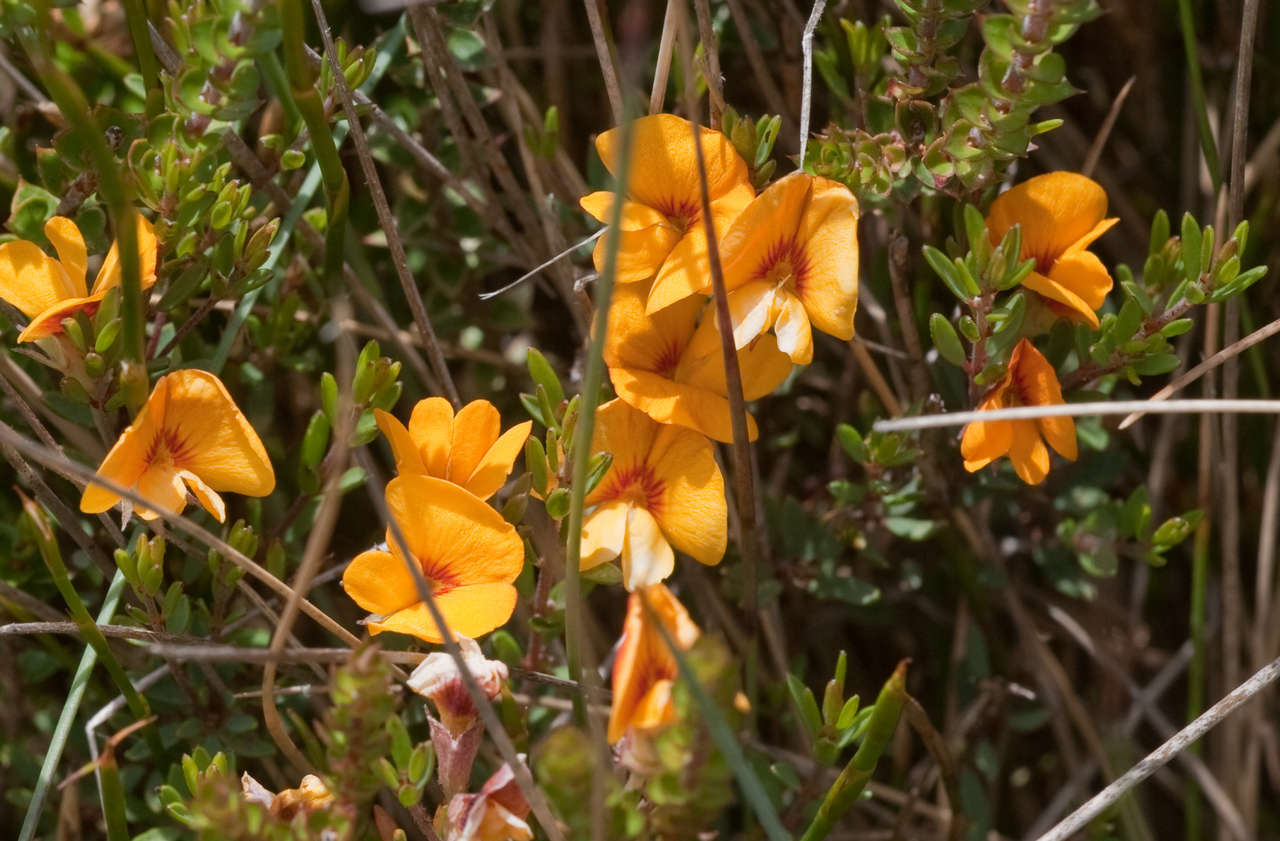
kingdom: Plantae
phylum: Tracheophyta
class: Magnoliopsida
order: Fabales
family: Fabaceae
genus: Pultenaea
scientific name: Pultenaea tenella
